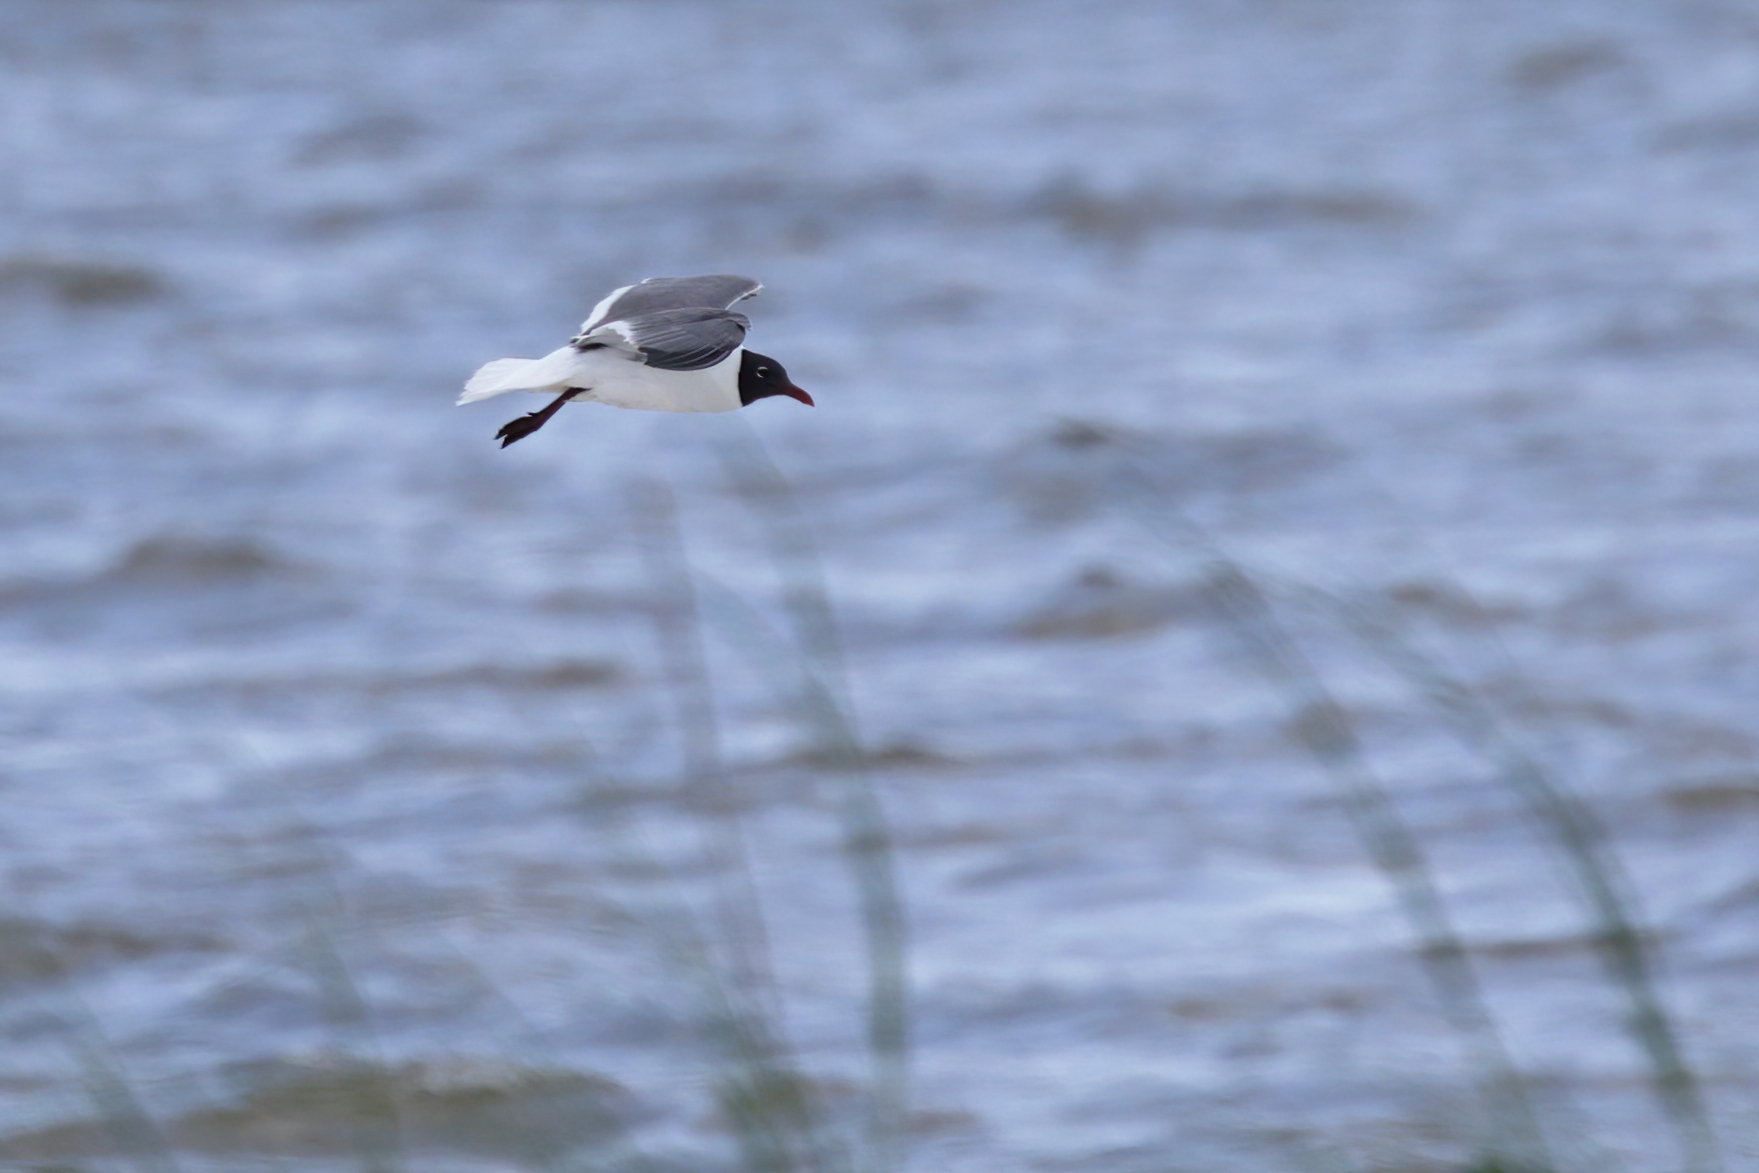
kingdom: Animalia
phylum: Chordata
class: Aves
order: Charadriiformes
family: Laridae
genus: Leucophaeus
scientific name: Leucophaeus atricilla
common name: Laughing gull
